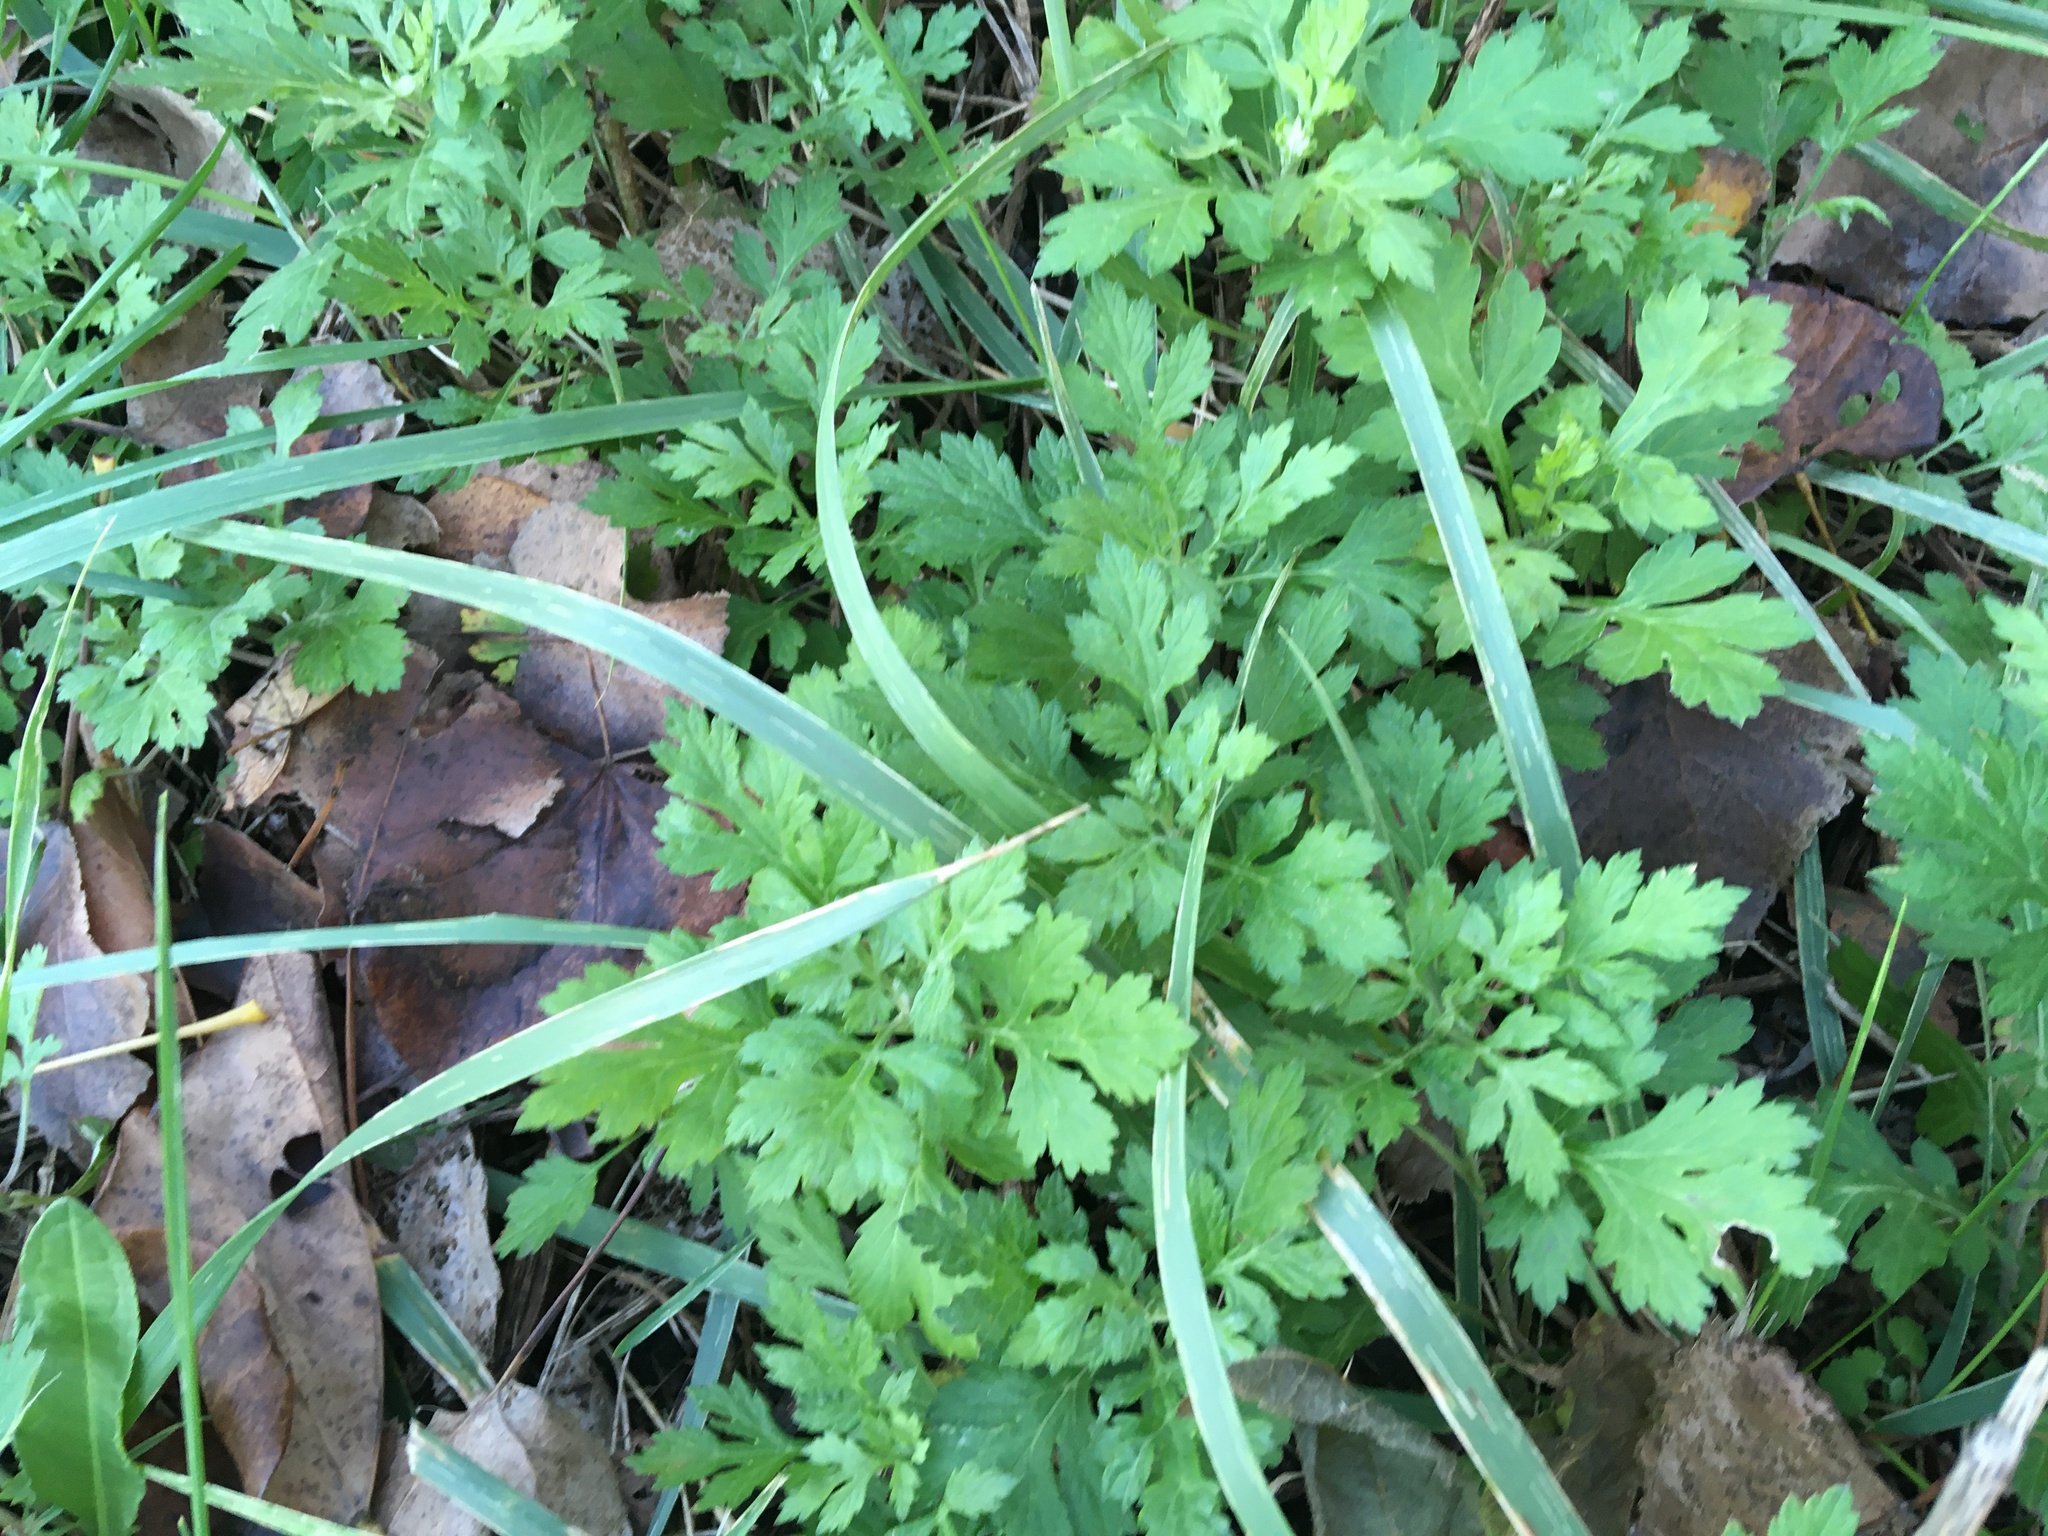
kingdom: Plantae
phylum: Tracheophyta
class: Magnoliopsida
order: Asterales
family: Asteraceae
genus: Artemisia
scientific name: Artemisia vulgaris
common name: Mugwort
